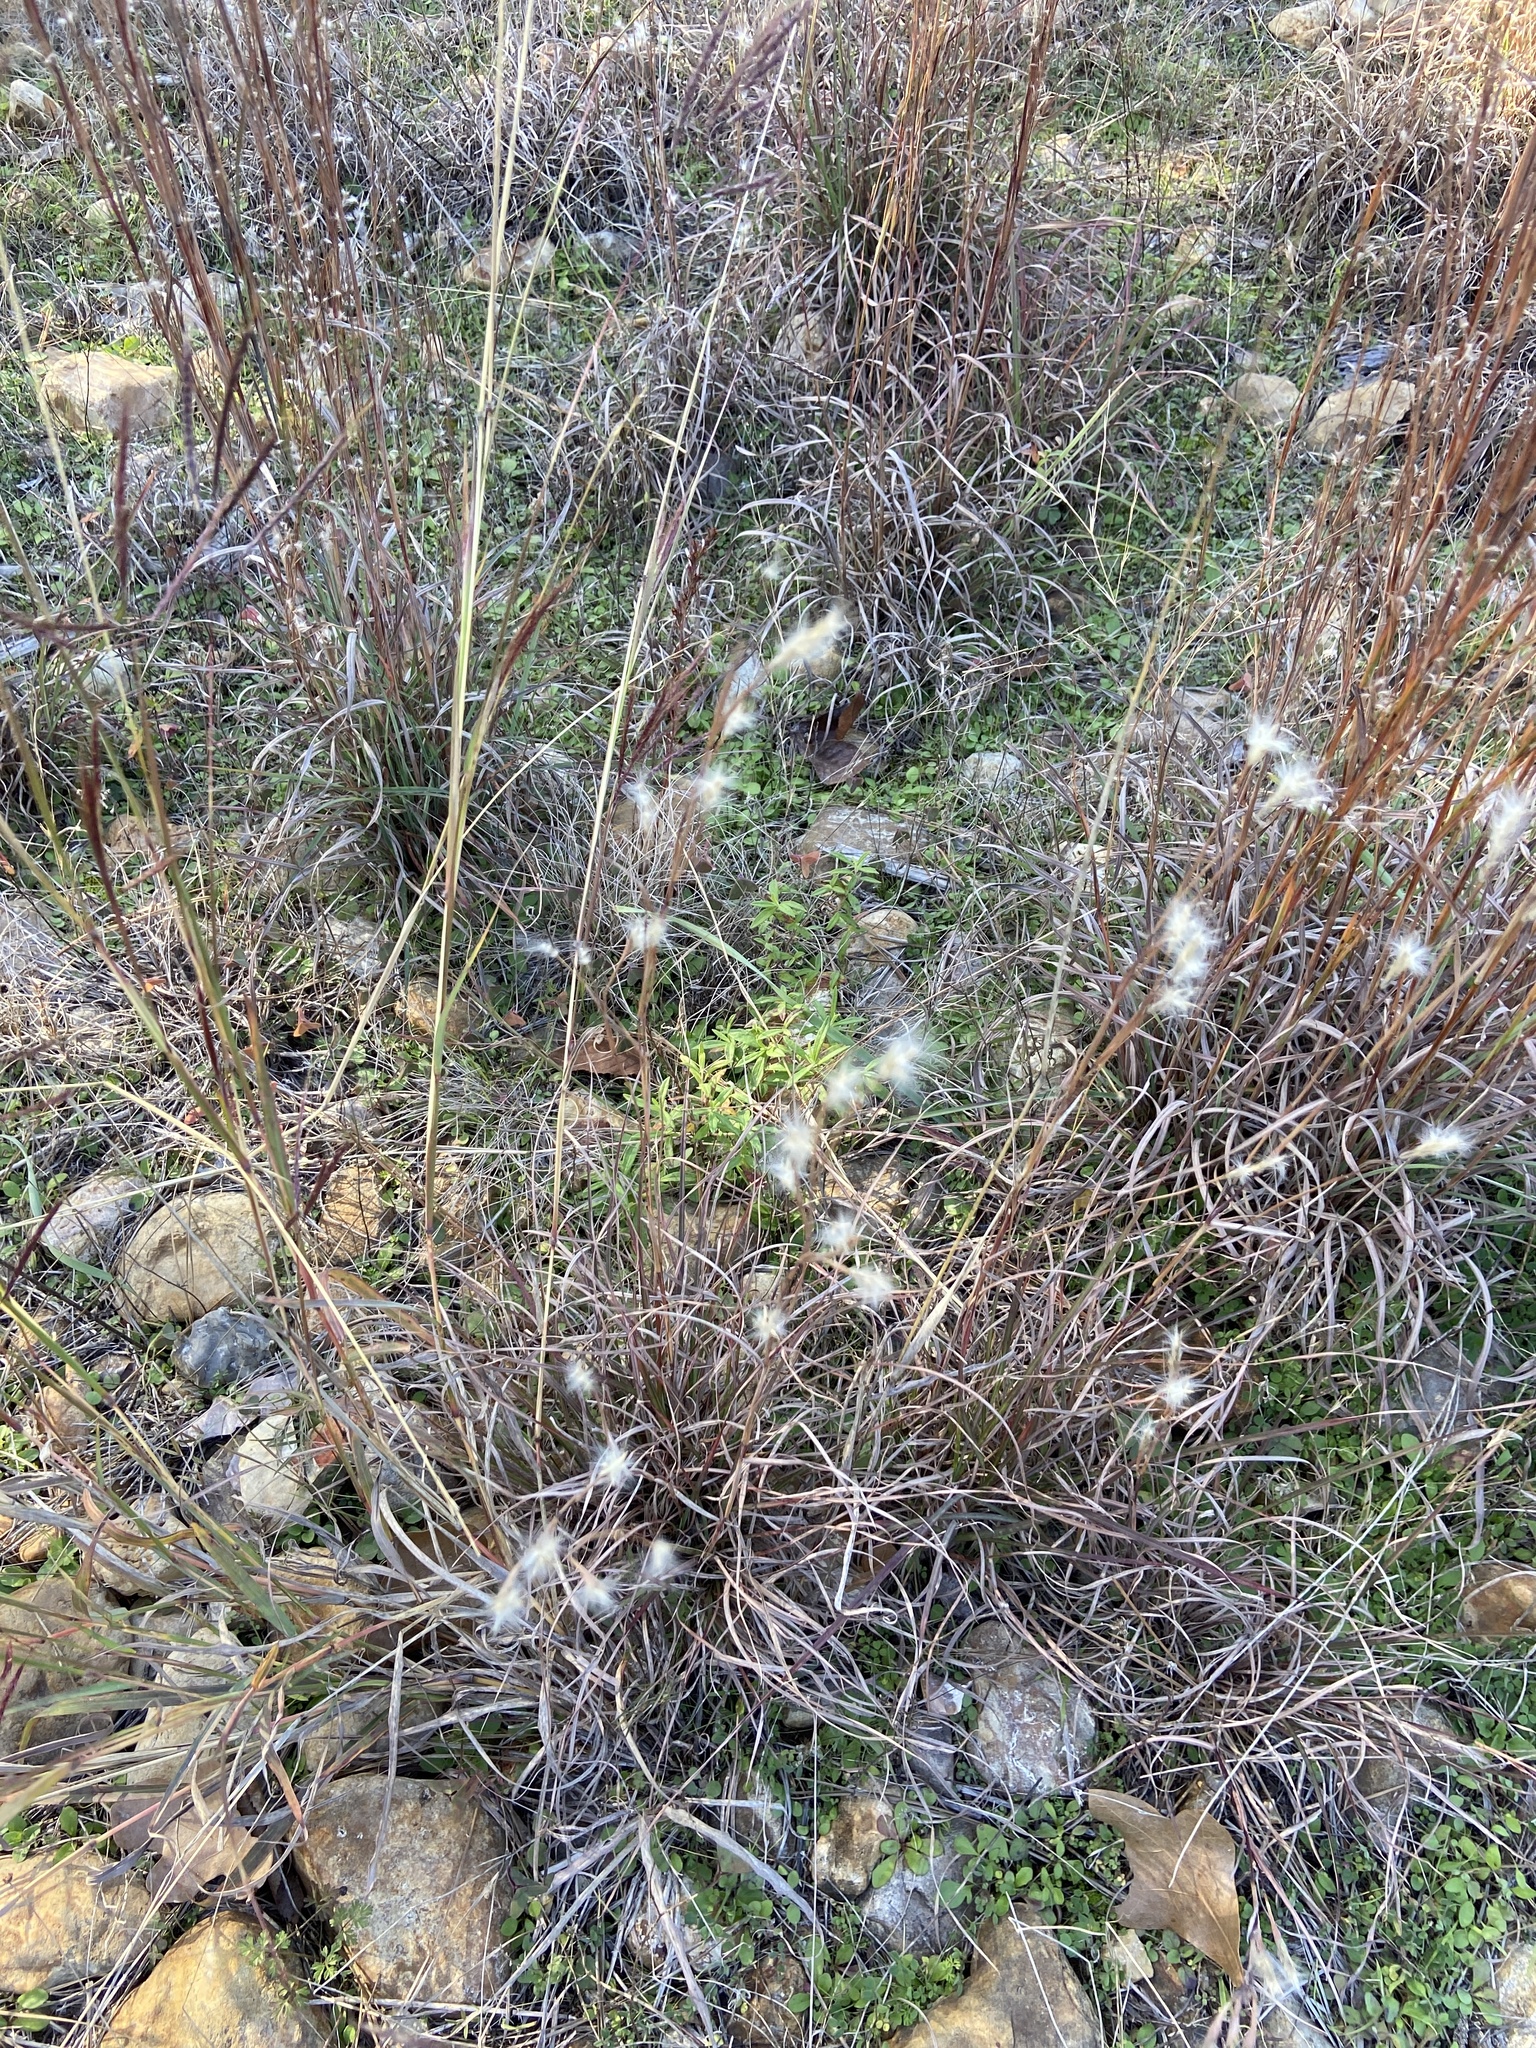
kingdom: Plantae
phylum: Tracheophyta
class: Liliopsida
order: Poales
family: Poaceae
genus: Andropogon
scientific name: Andropogon ternarius
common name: Split bluestem
